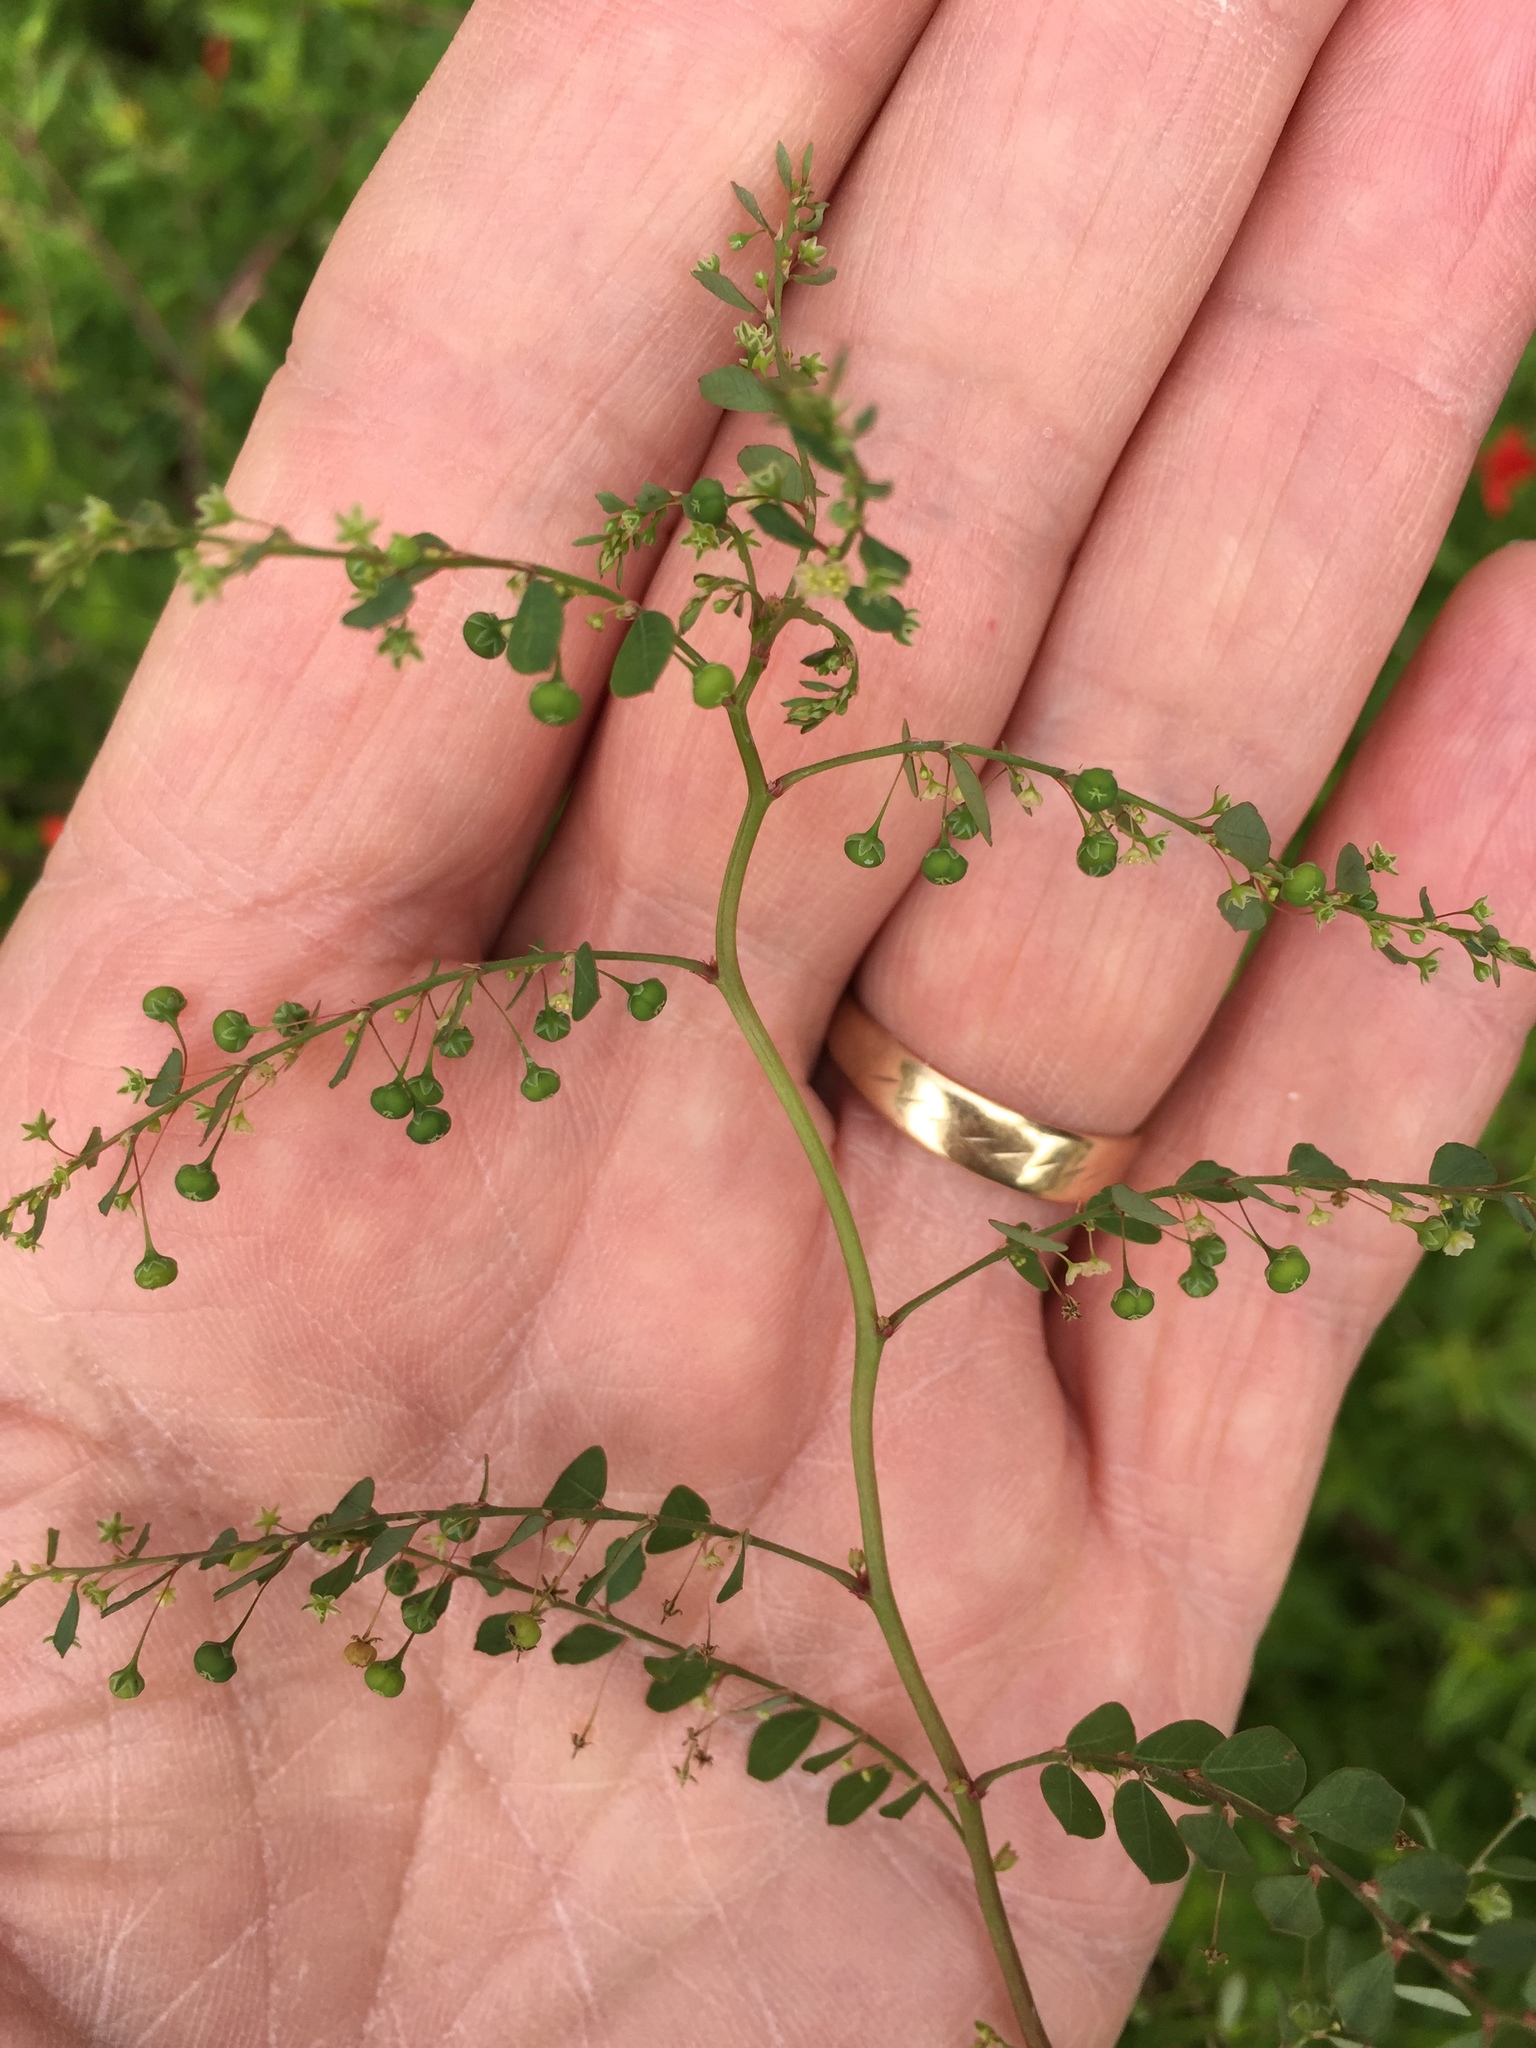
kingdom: Plantae
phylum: Tracheophyta
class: Magnoliopsida
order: Malpighiales
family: Phyllanthaceae
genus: Phyllanthus
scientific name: Phyllanthus tenellus
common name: Mascarene island leaf-flower
